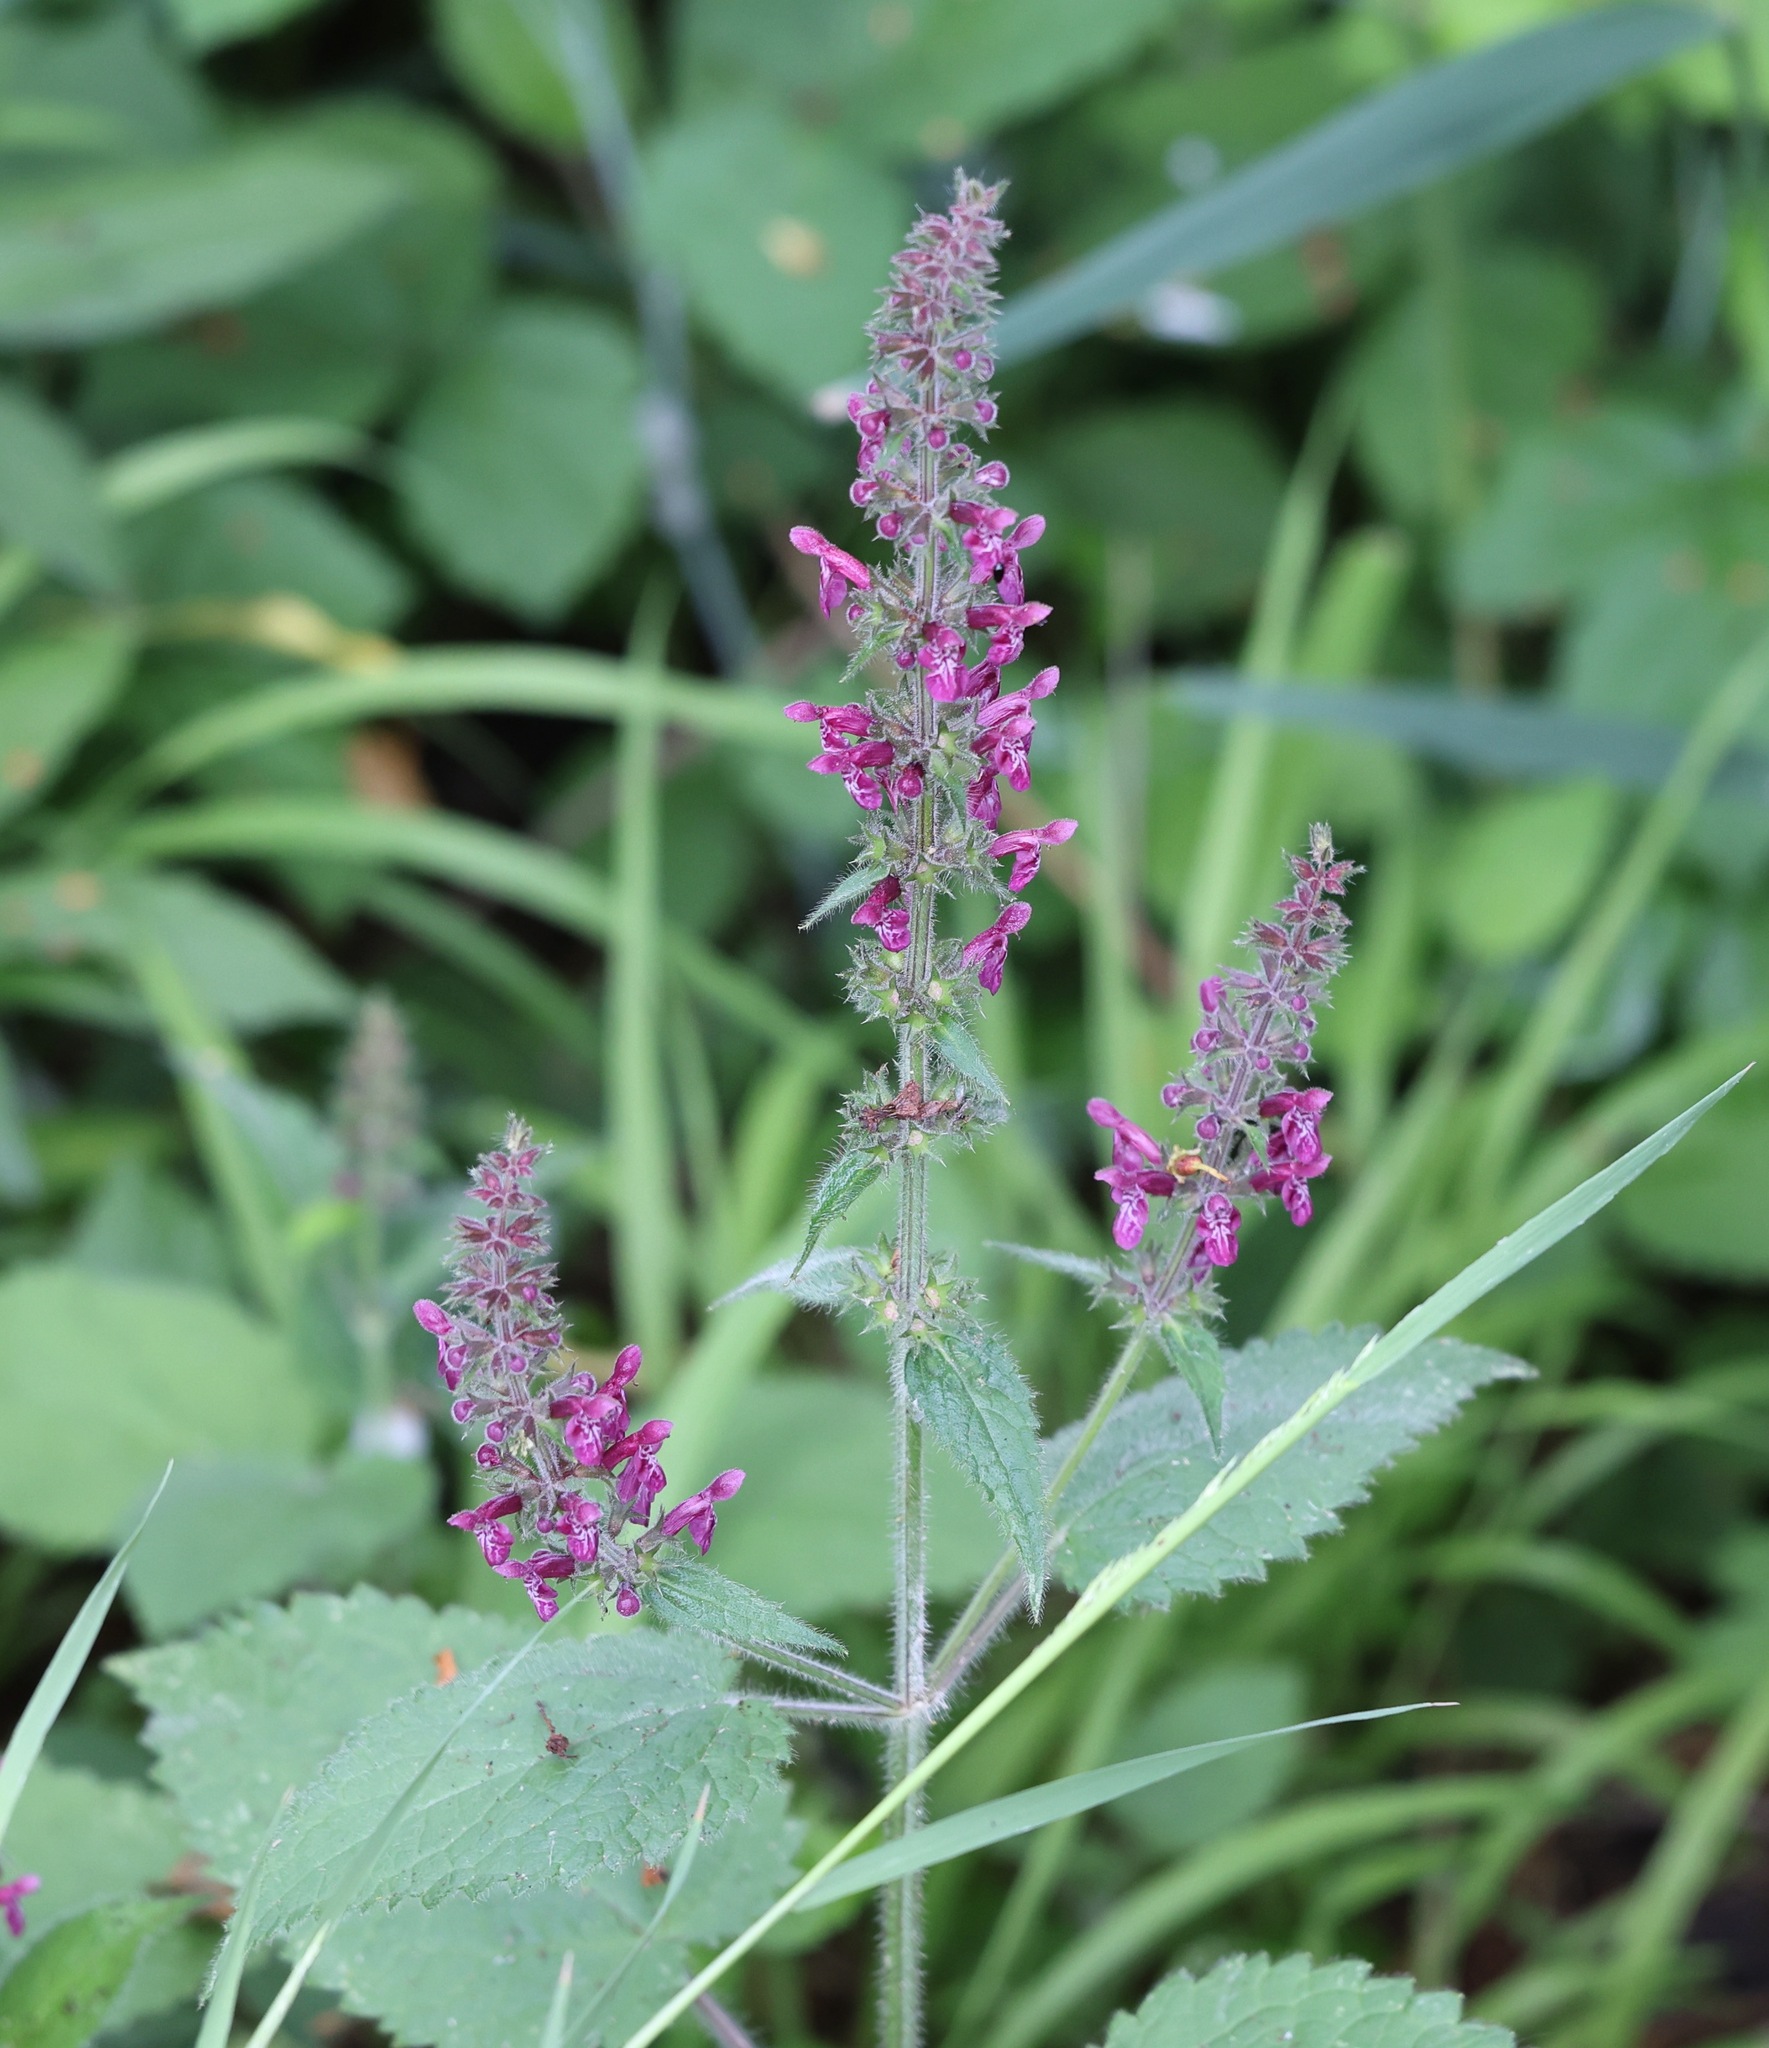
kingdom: Plantae
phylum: Tracheophyta
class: Magnoliopsida
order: Lamiales
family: Lamiaceae
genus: Stachys
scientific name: Stachys sylvatica
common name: Hedge woundwort
